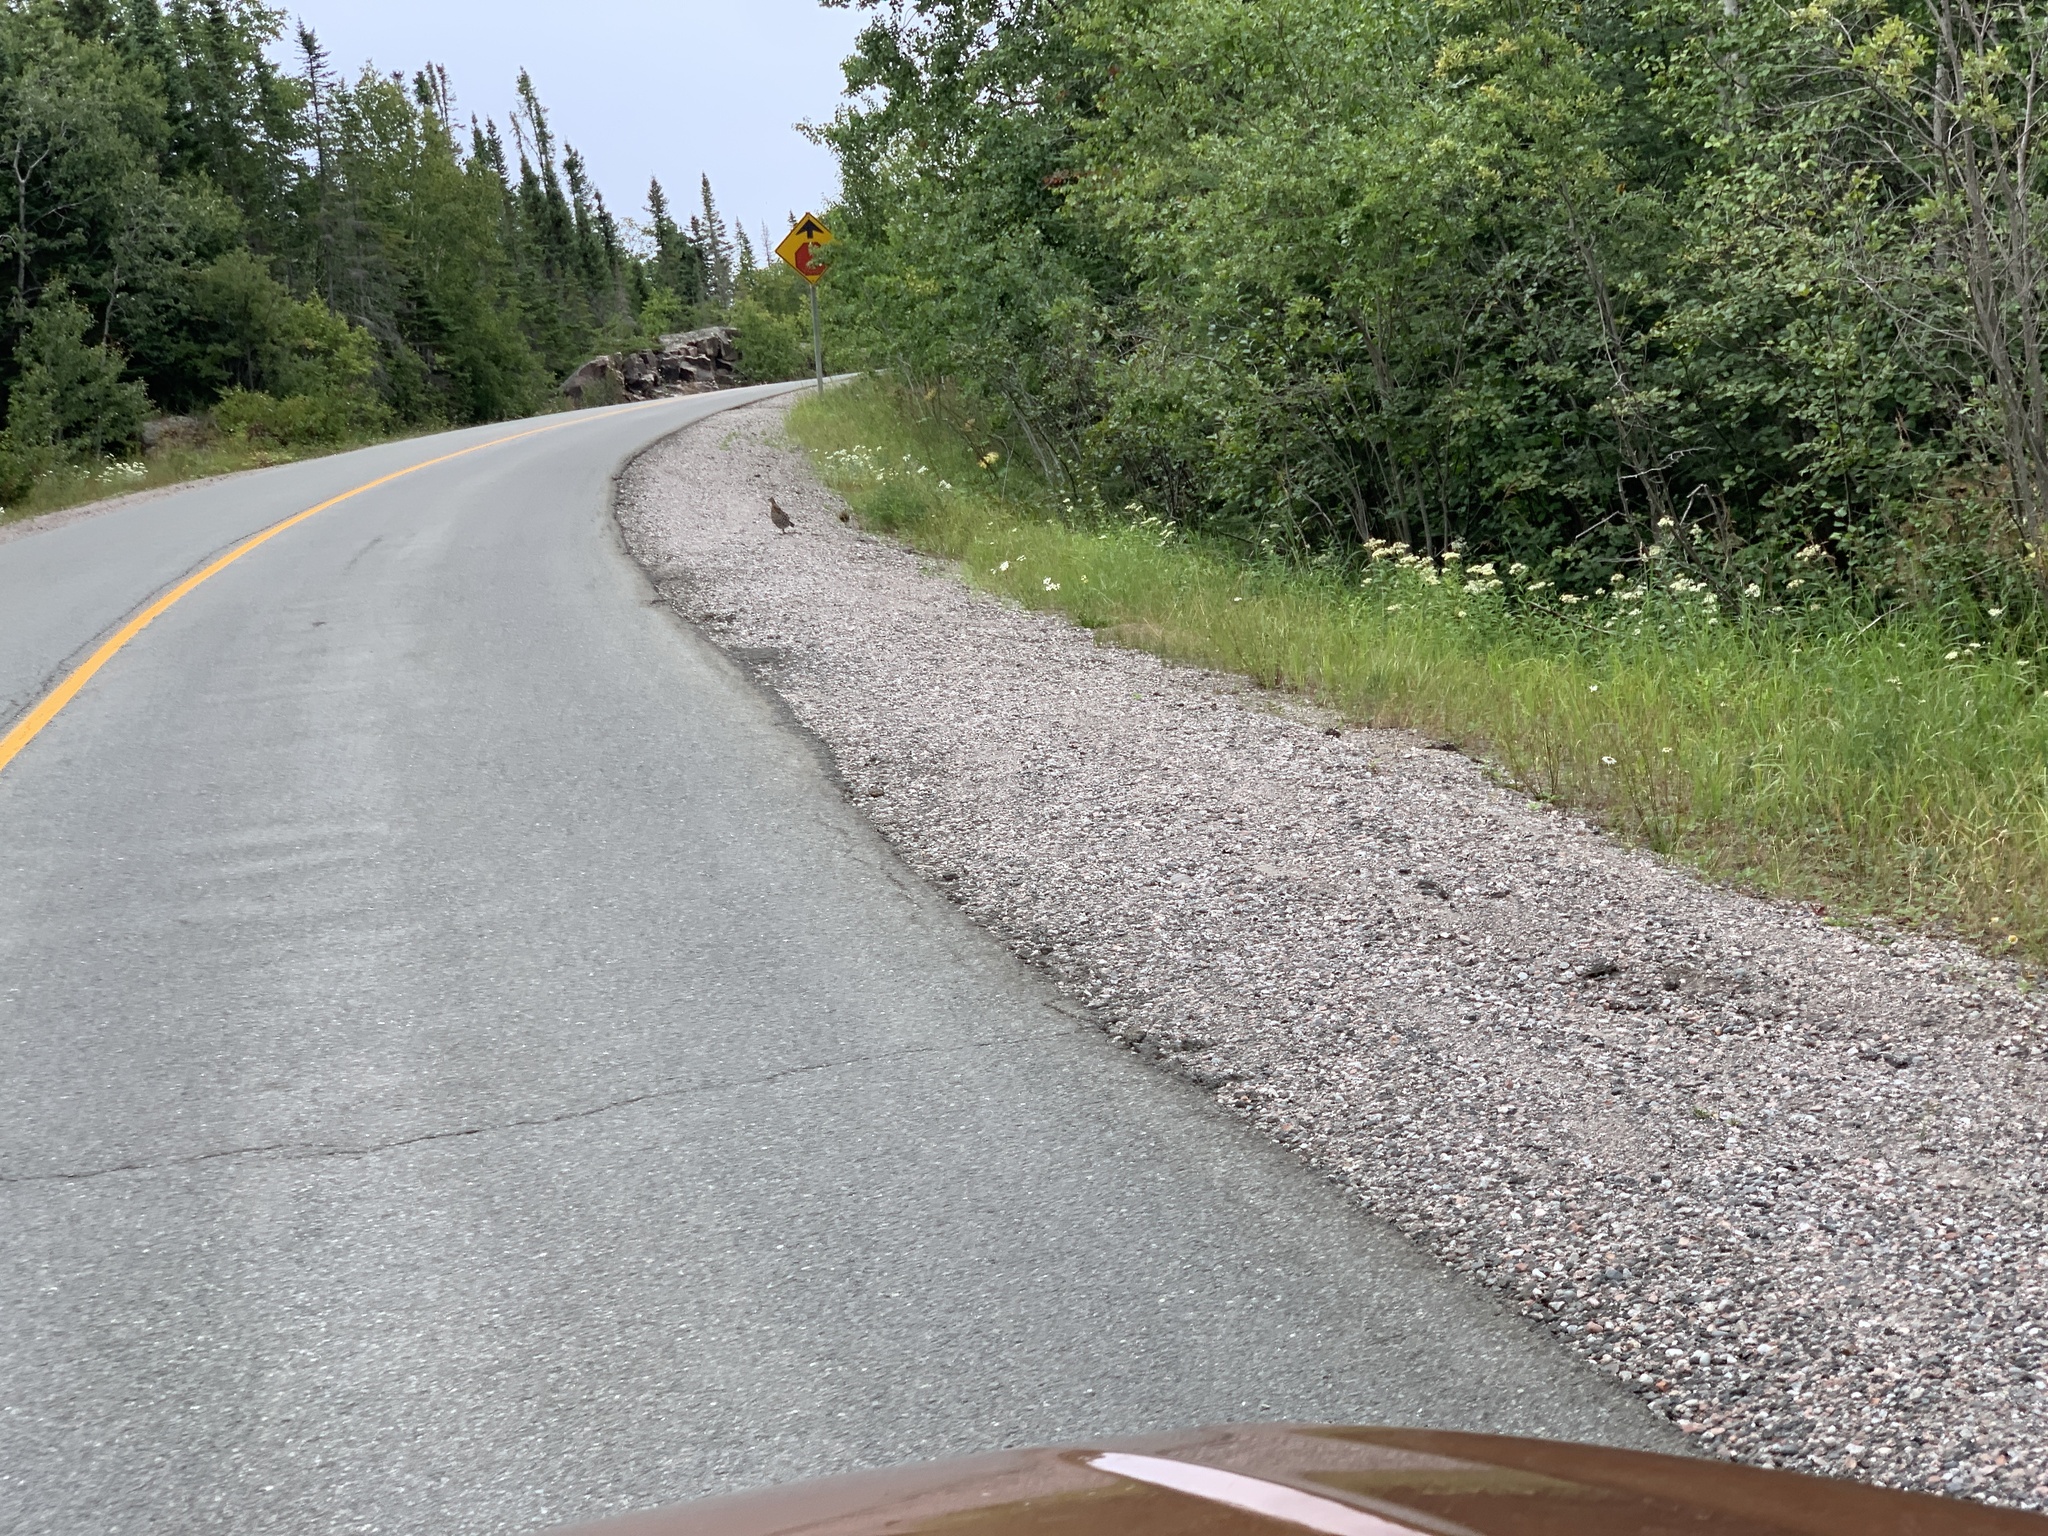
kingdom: Animalia
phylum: Chordata
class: Aves
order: Galliformes
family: Phasianidae
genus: Bonasa
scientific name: Bonasa umbellus
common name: Ruffed grouse
